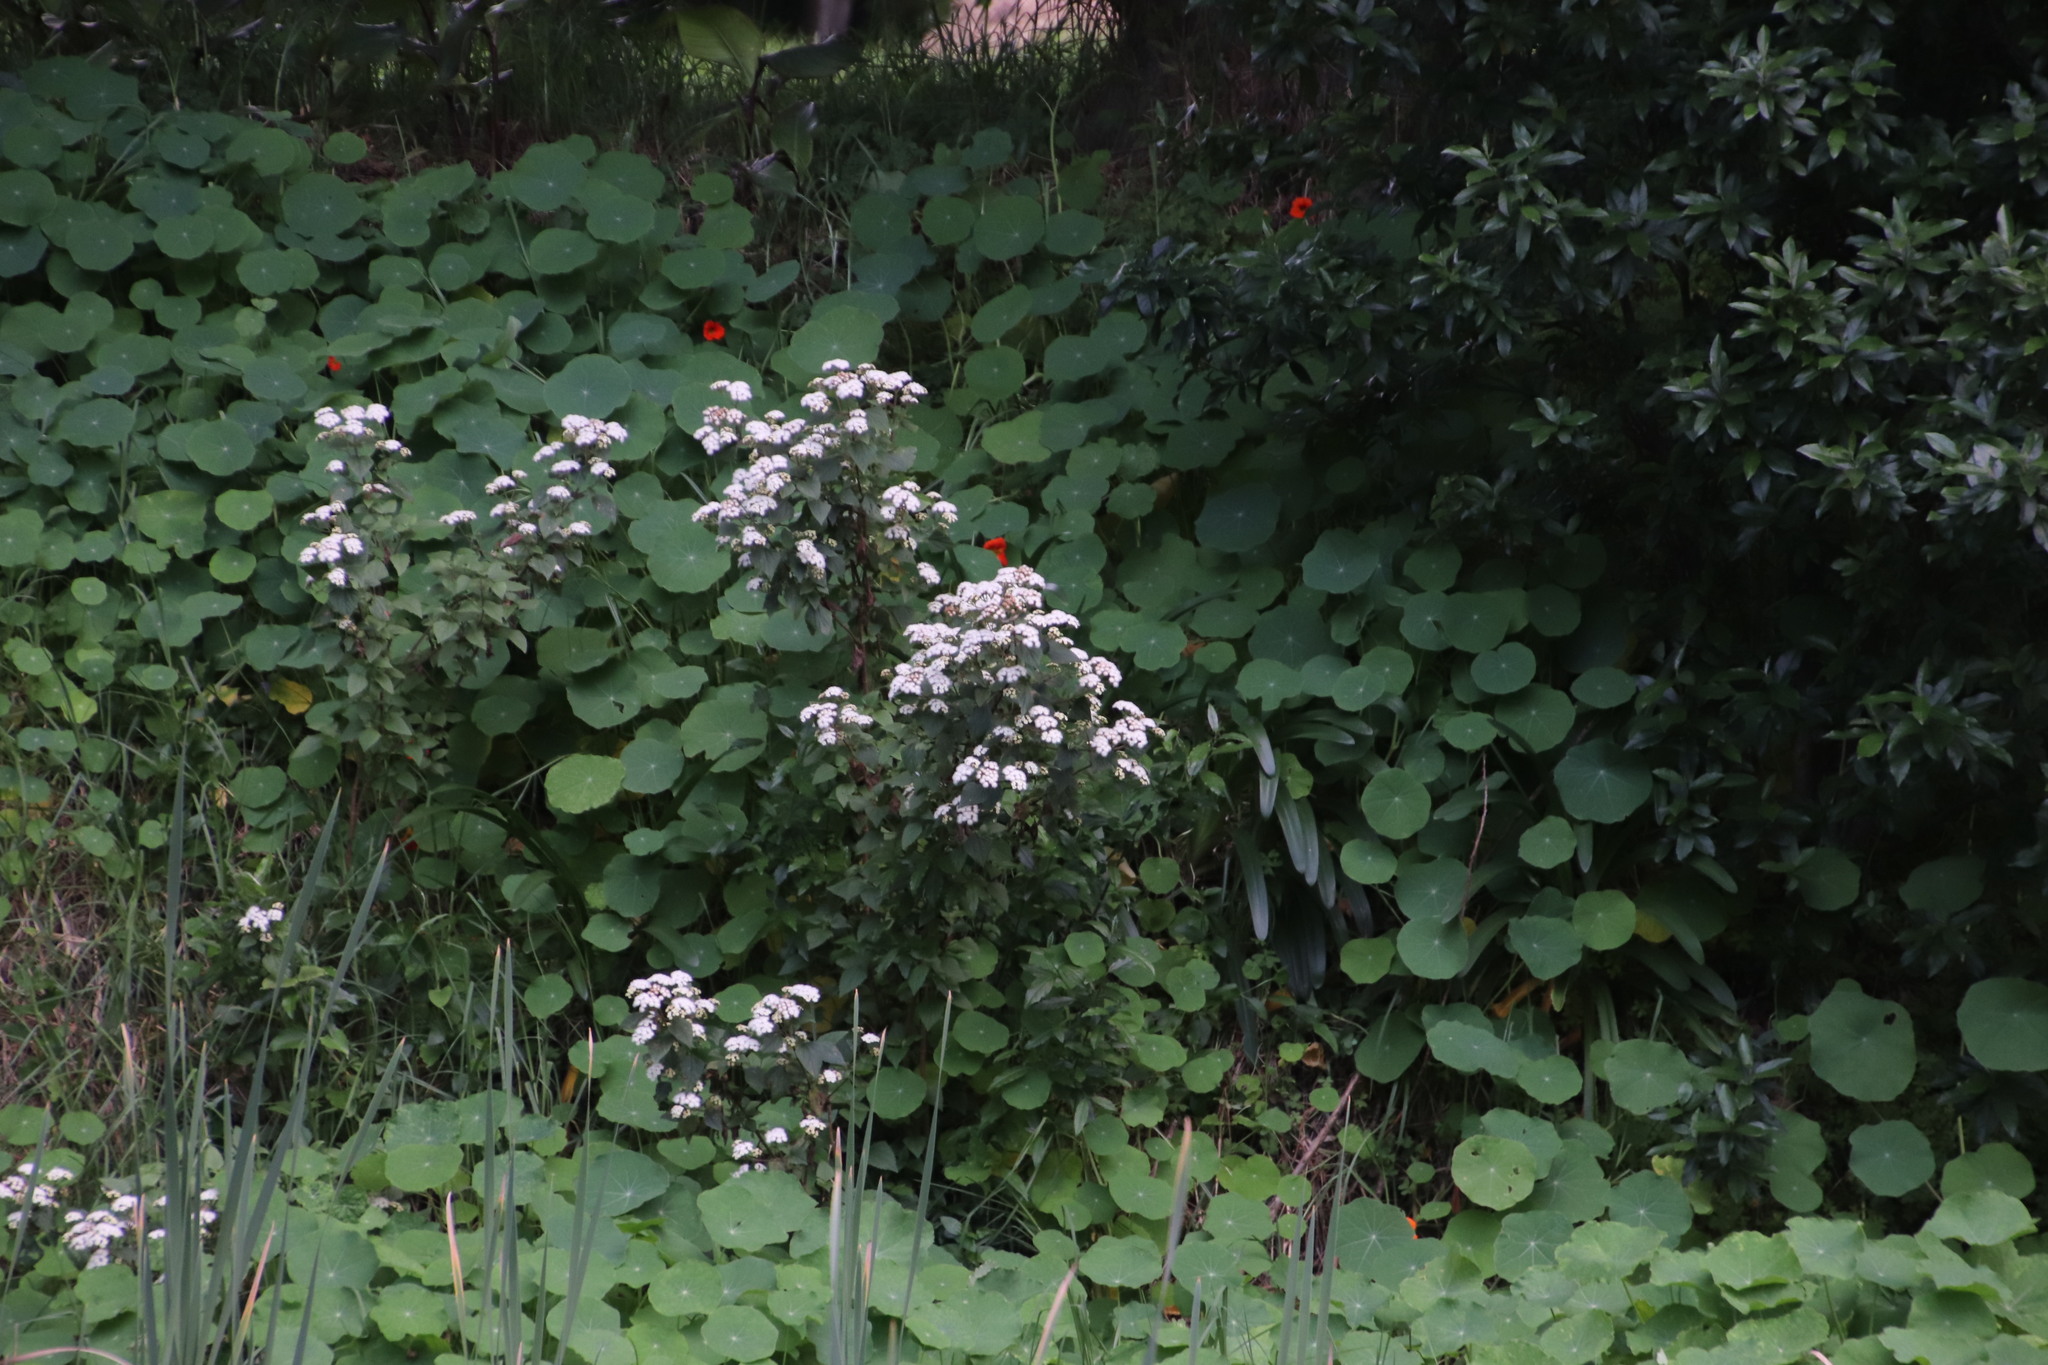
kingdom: Plantae
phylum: Tracheophyta
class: Magnoliopsida
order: Asterales
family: Asteraceae
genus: Ageratina
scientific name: Ageratina adenophora
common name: Sticky snakeroot
